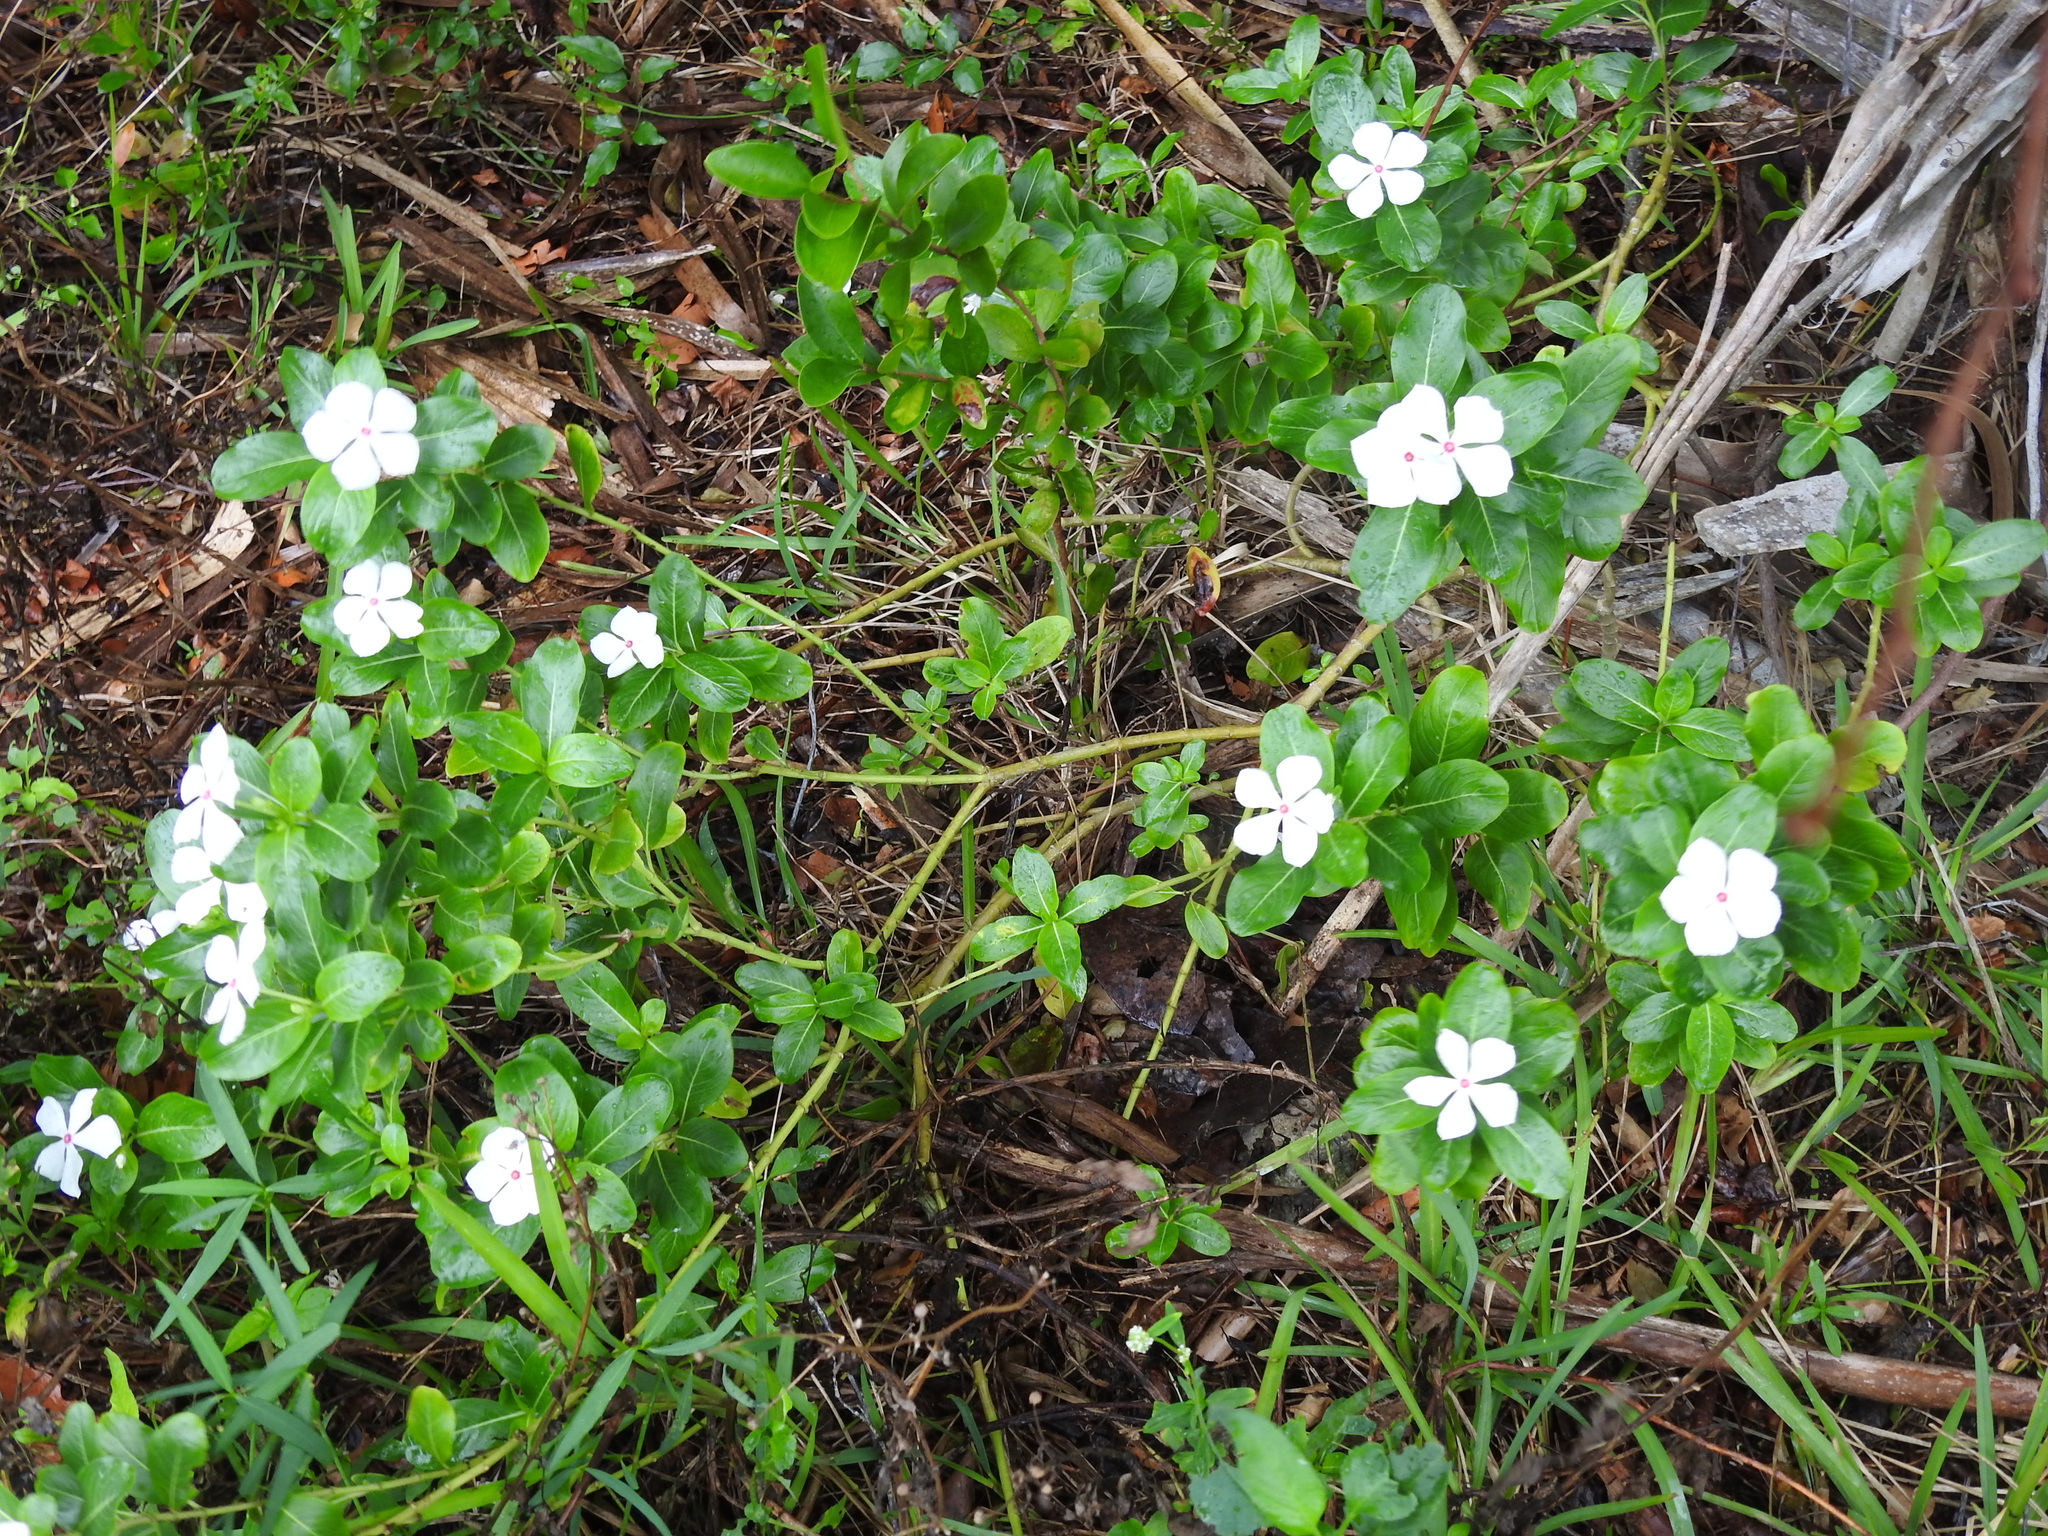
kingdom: Plantae
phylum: Tracheophyta
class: Magnoliopsida
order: Gentianales
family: Apocynaceae
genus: Catharanthus
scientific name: Catharanthus roseus
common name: Madagascar periwinkle
